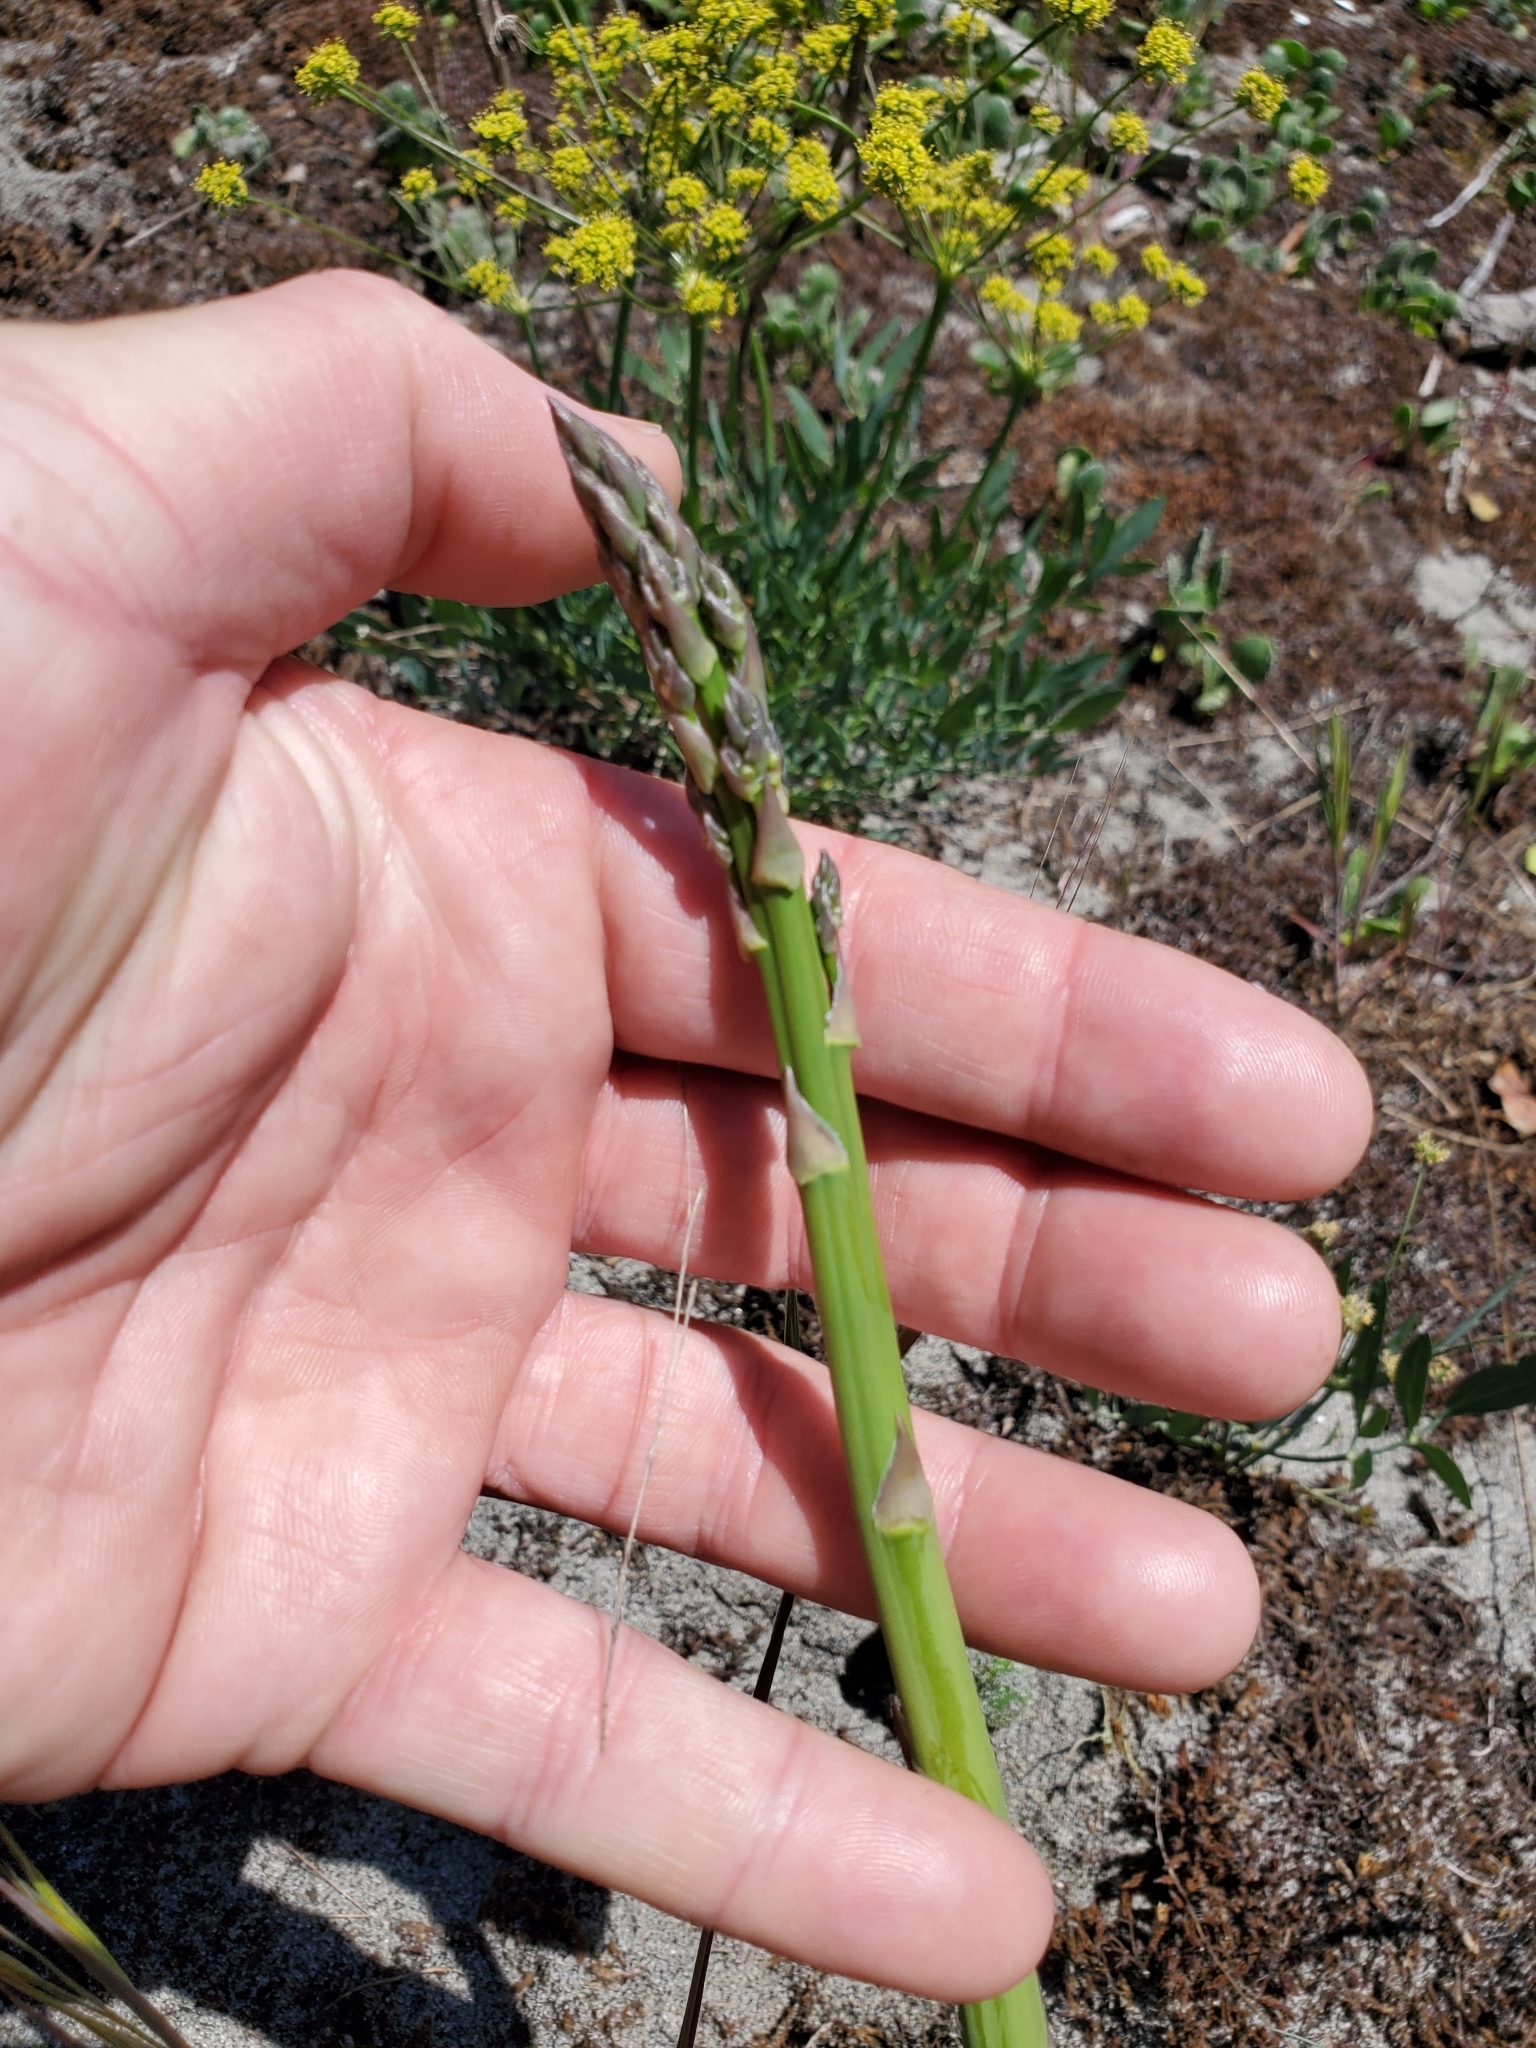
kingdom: Plantae
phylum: Tracheophyta
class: Liliopsida
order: Asparagales
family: Asparagaceae
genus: Asparagus
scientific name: Asparagus officinalis
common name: Garden asparagus
